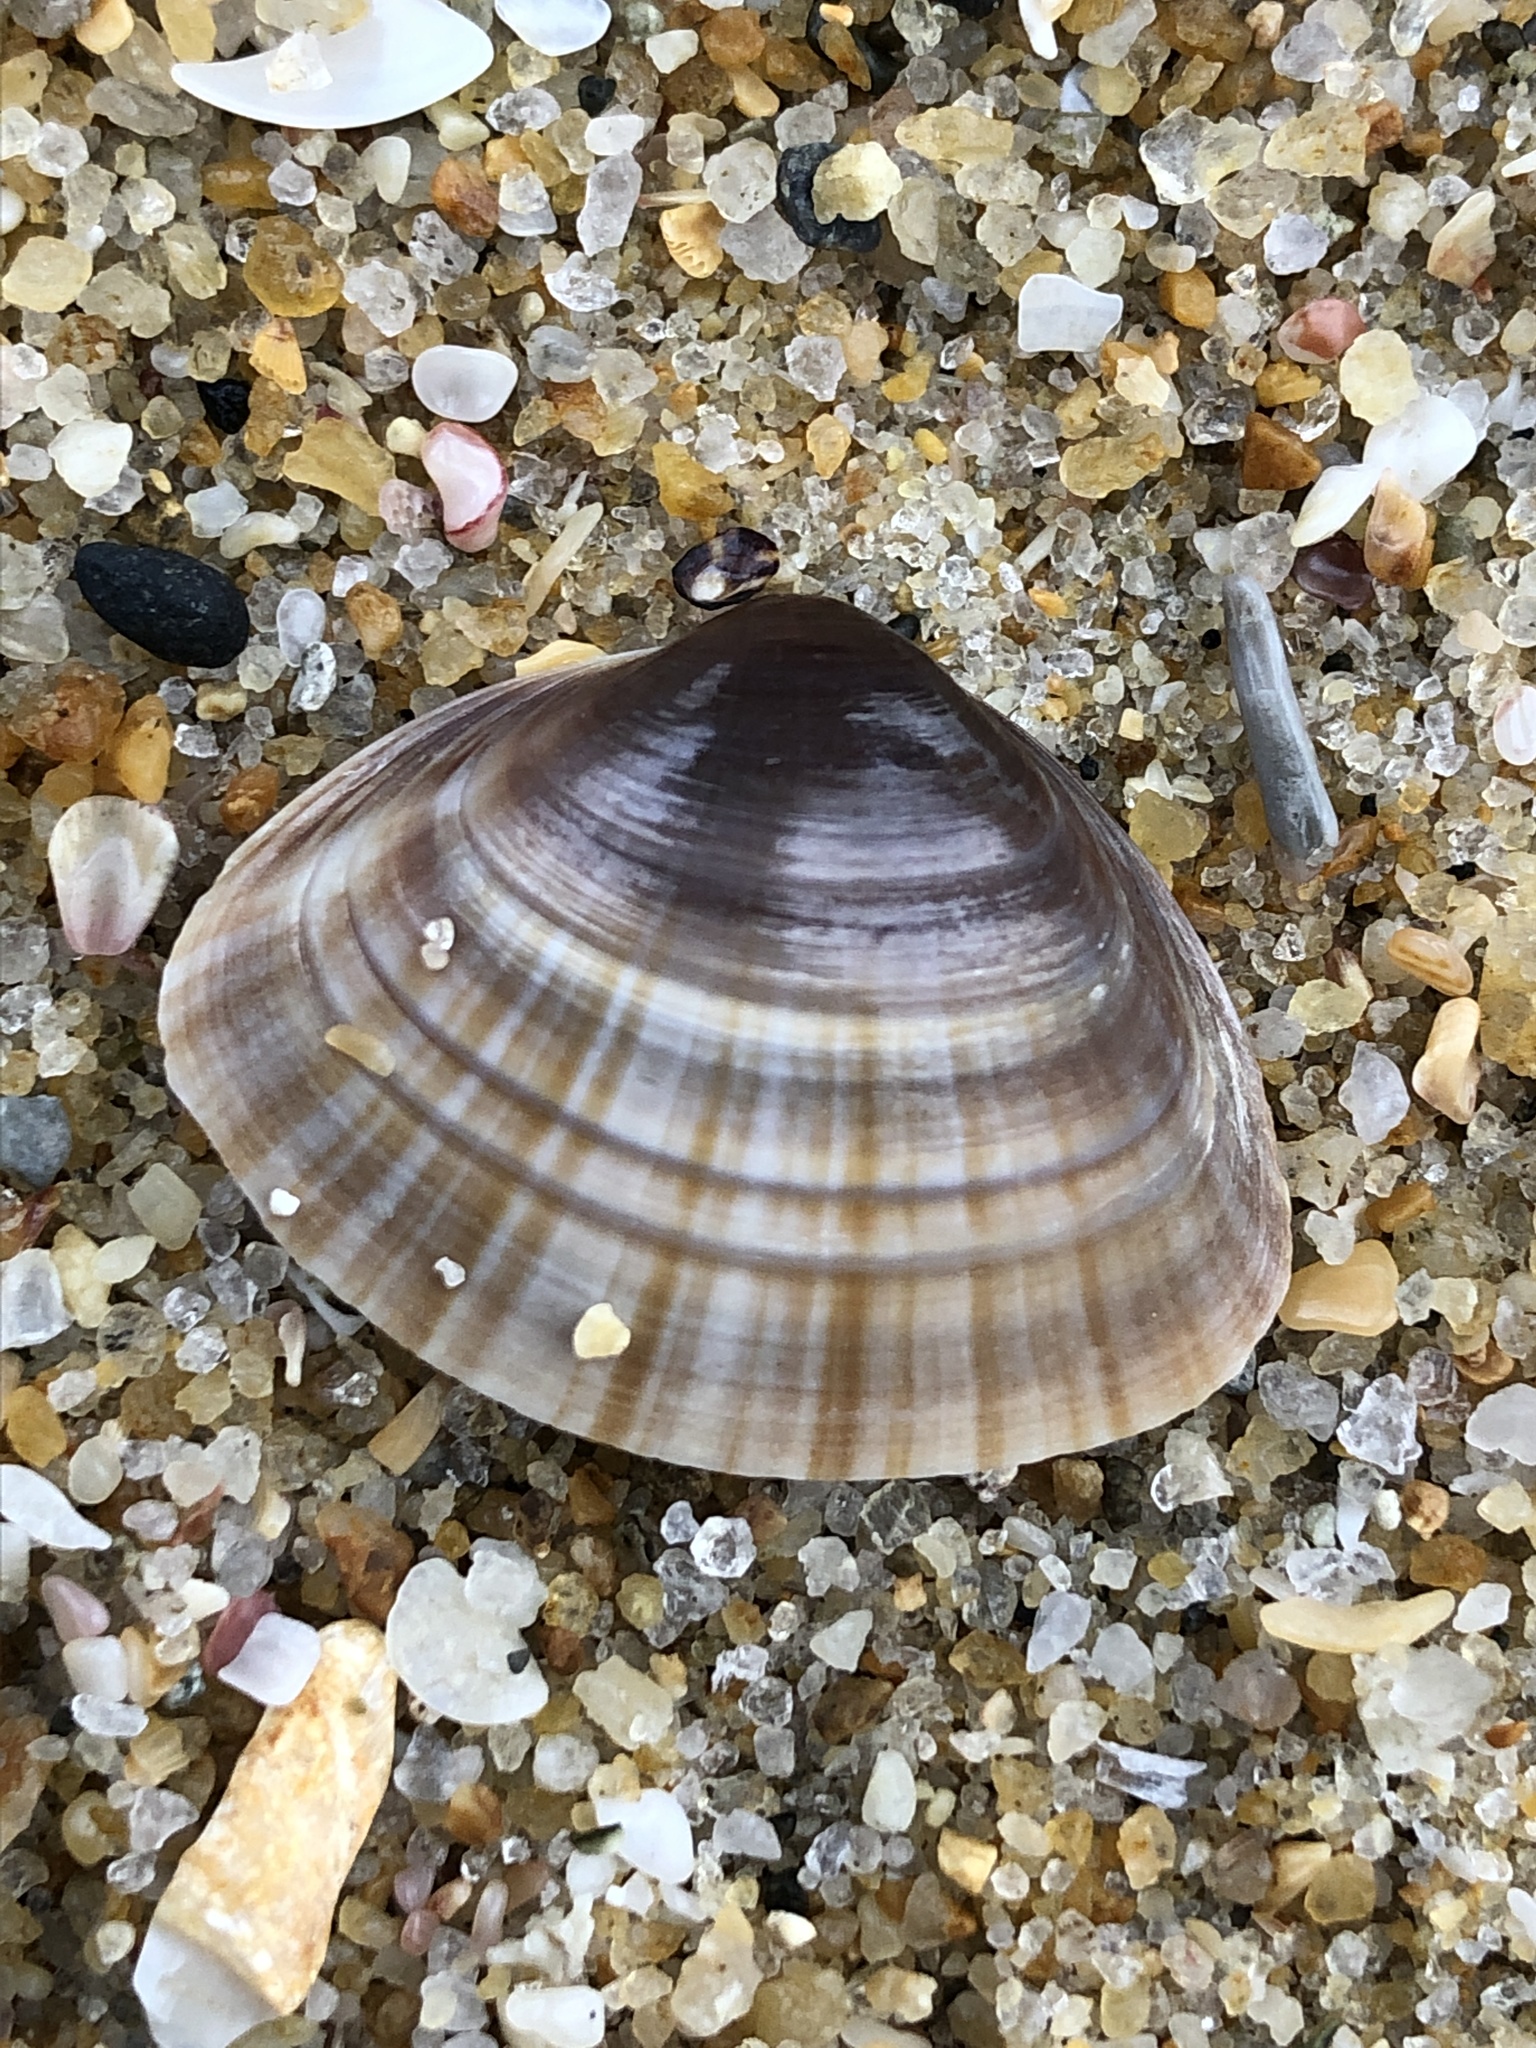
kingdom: Animalia
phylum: Mollusca
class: Bivalvia
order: Venerida
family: Mactridae
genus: Mactra
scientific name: Mactra chinensis
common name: Chinese surf clam
